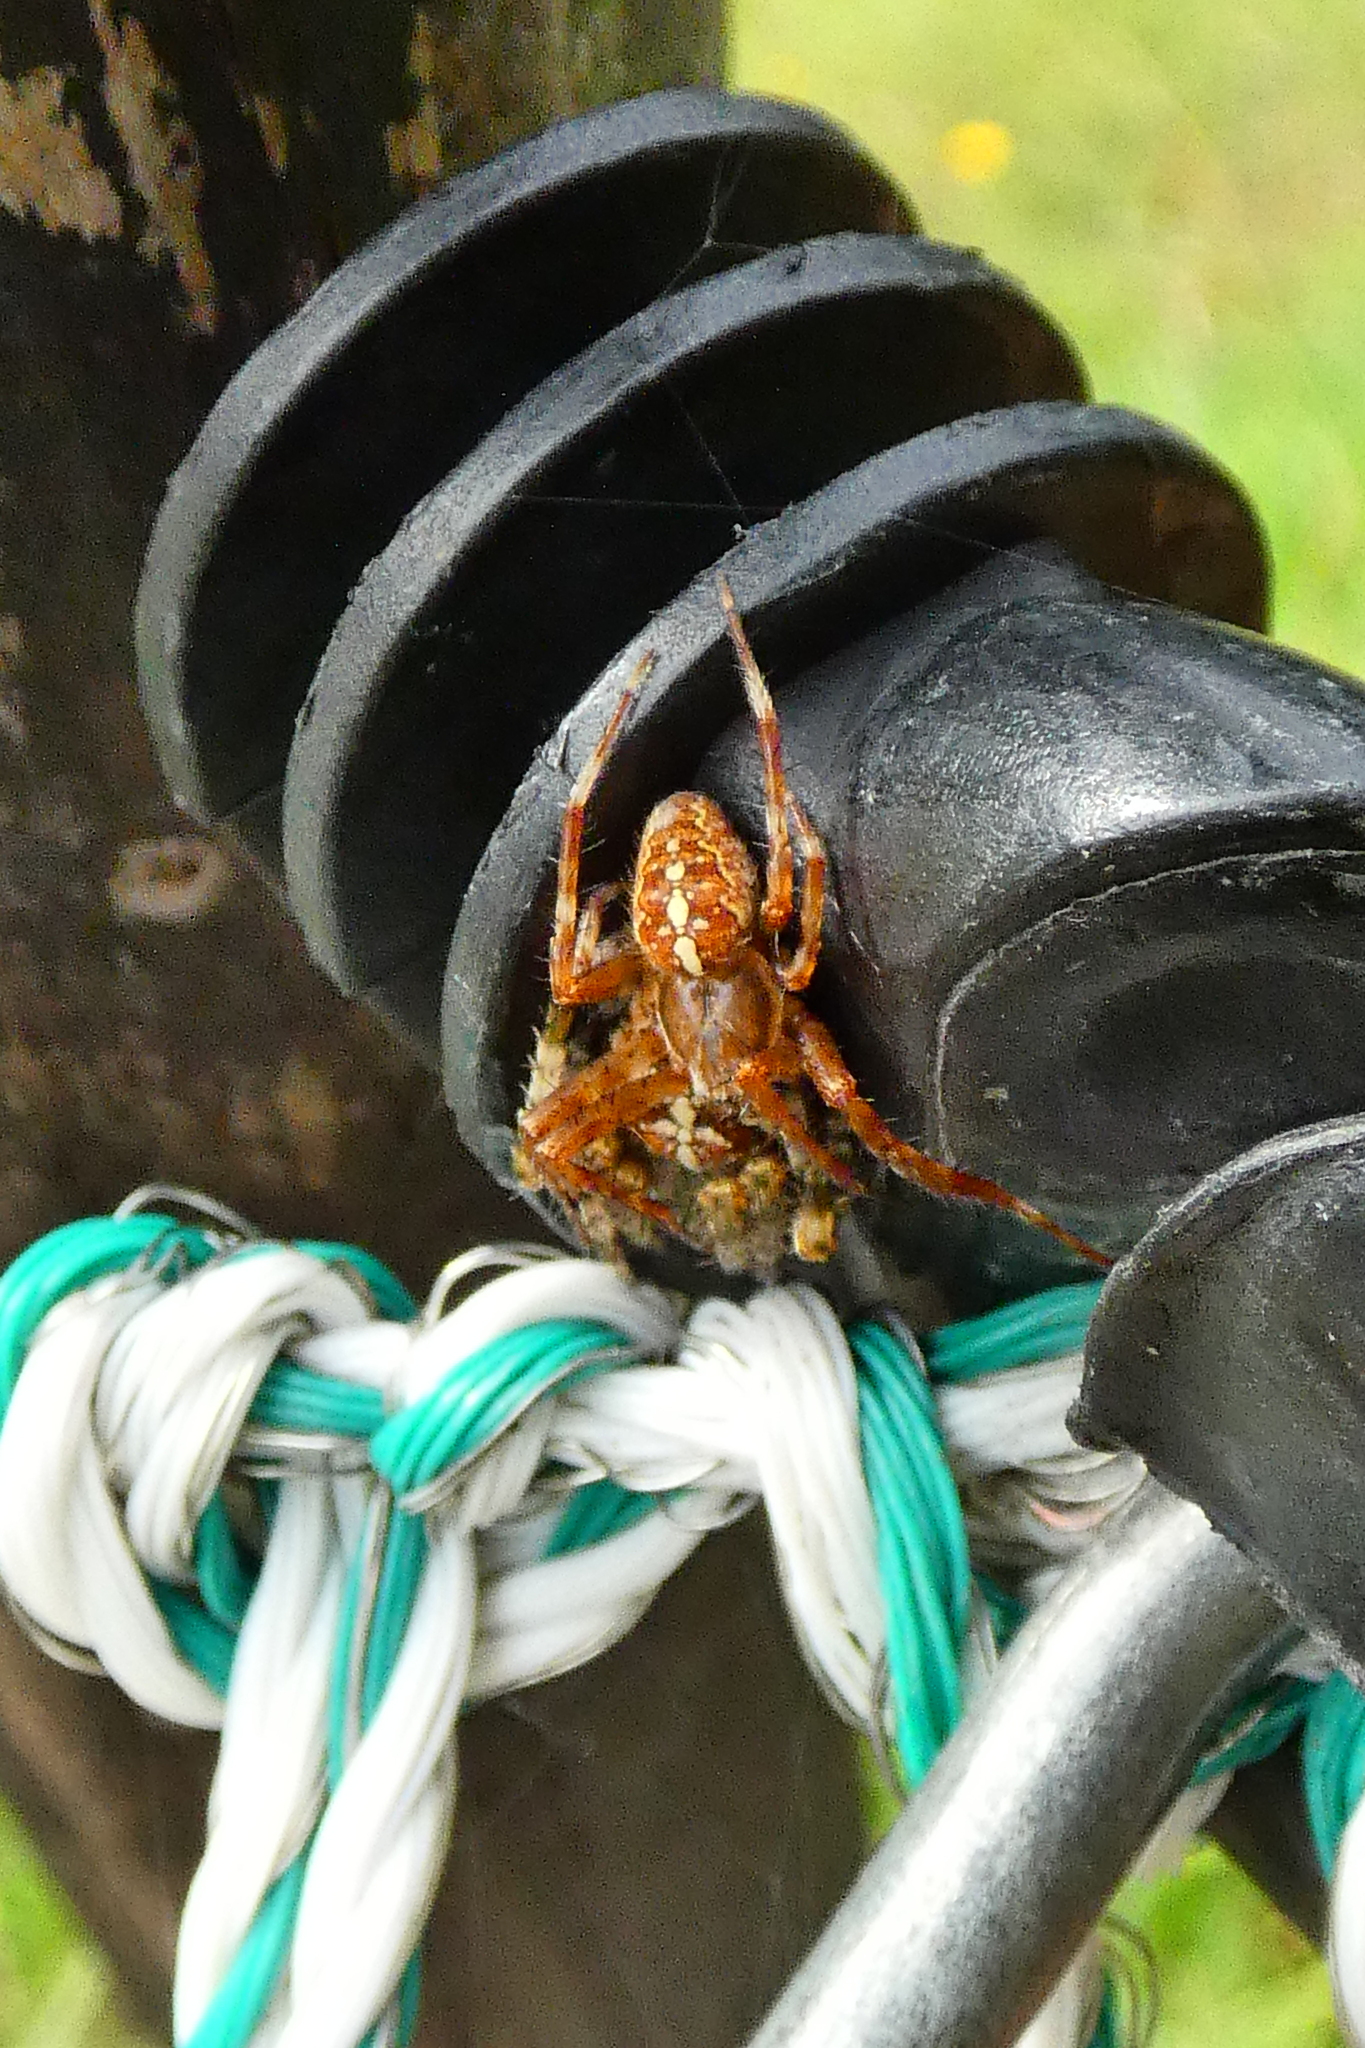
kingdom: Animalia
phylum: Arthropoda
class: Arachnida
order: Araneae
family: Araneidae
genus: Araneus
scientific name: Araneus diadematus
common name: Cross orbweaver
